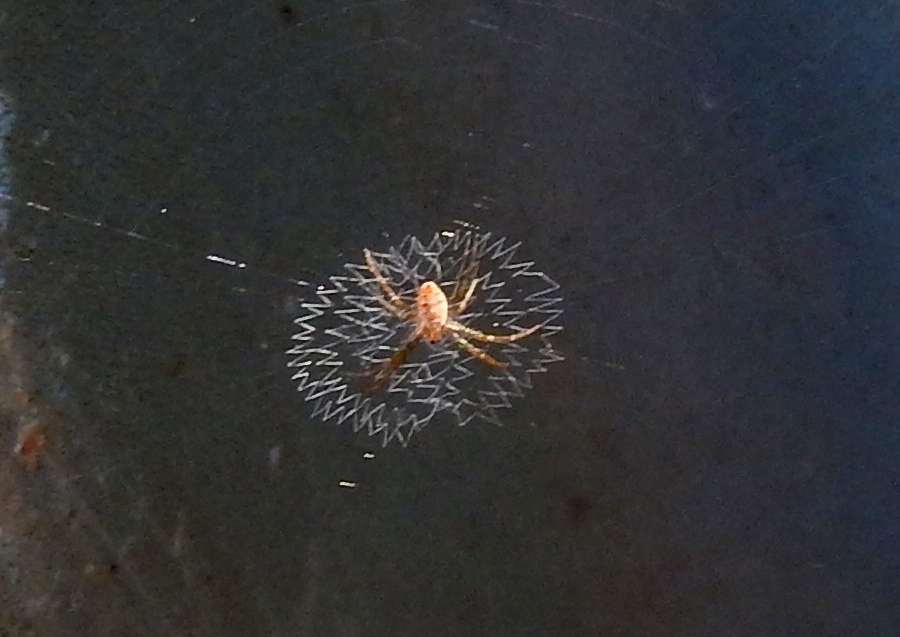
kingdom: Animalia
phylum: Arthropoda
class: Arachnida
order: Araneae
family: Araneidae
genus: Argiope
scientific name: Argiope
